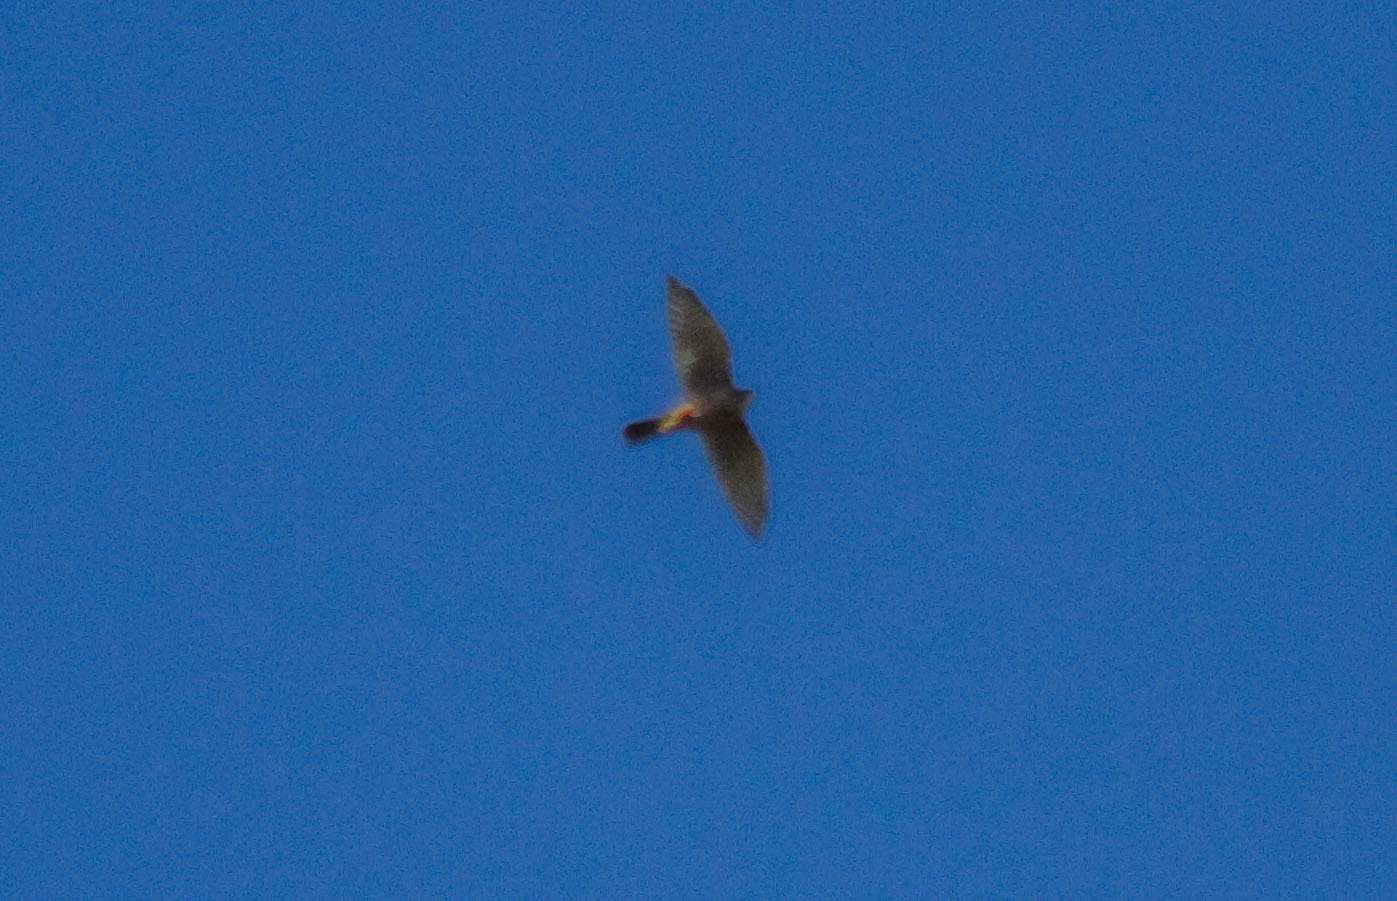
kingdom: Animalia
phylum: Chordata
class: Aves
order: Falconiformes
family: Falconidae
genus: Falco
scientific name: Falco novaeseelandiae
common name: New zealand falcon
